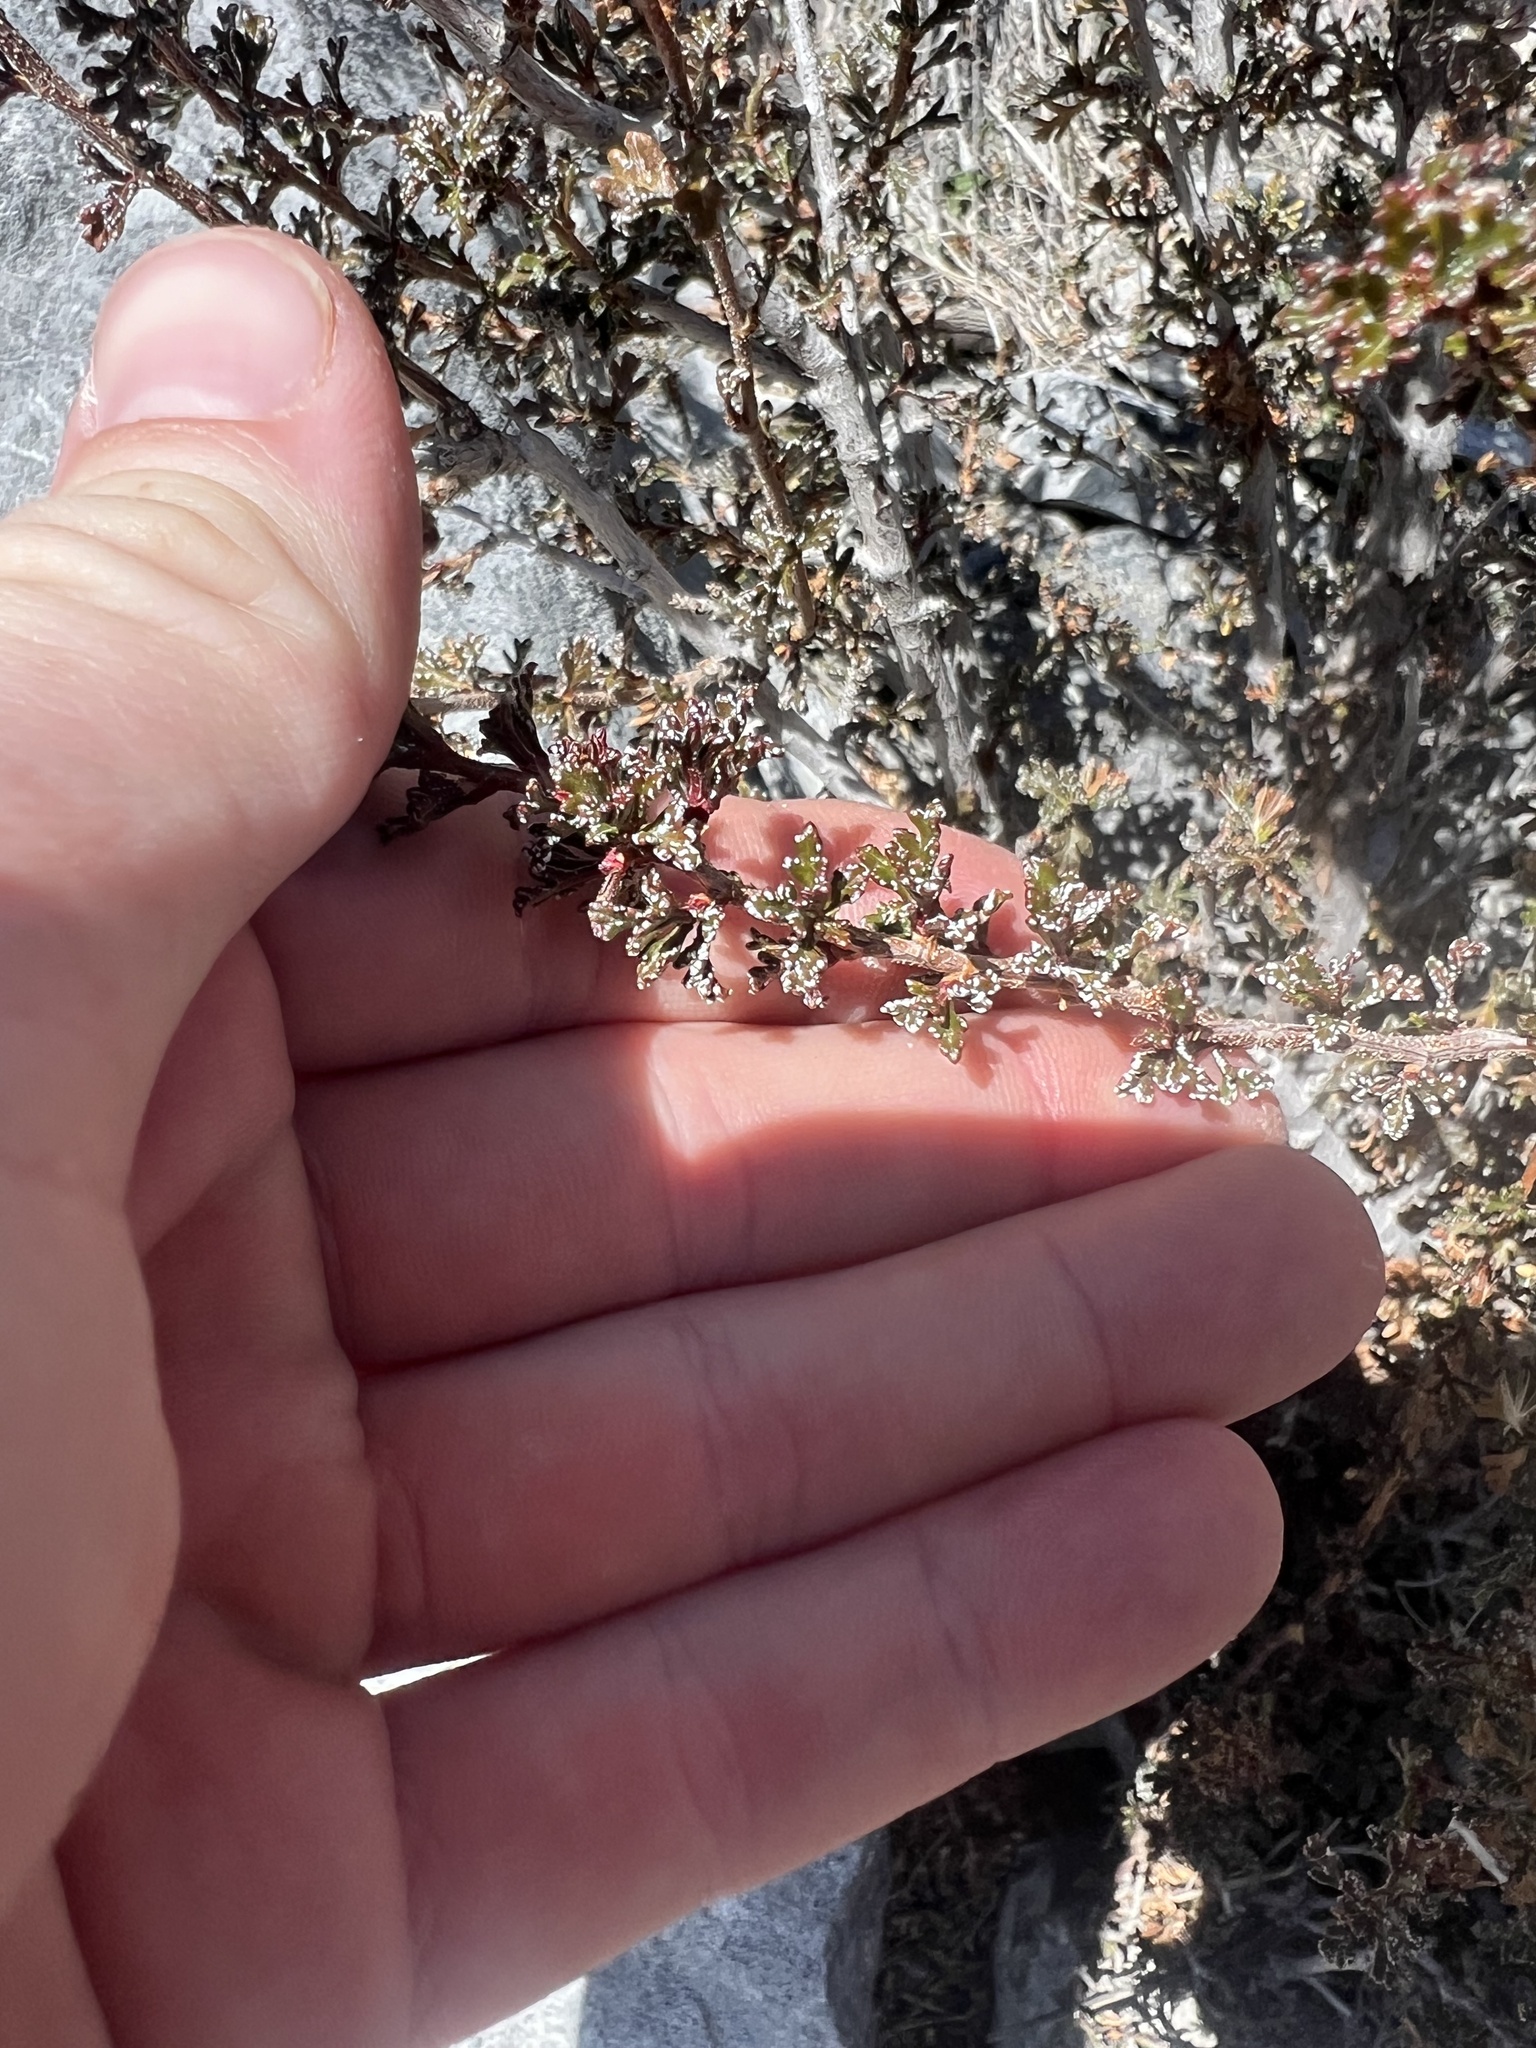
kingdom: Plantae
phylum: Tracheophyta
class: Magnoliopsida
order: Rosales
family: Rosaceae
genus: Purshia
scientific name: Purshia stansburiana
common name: Stansbury's cliffrose
